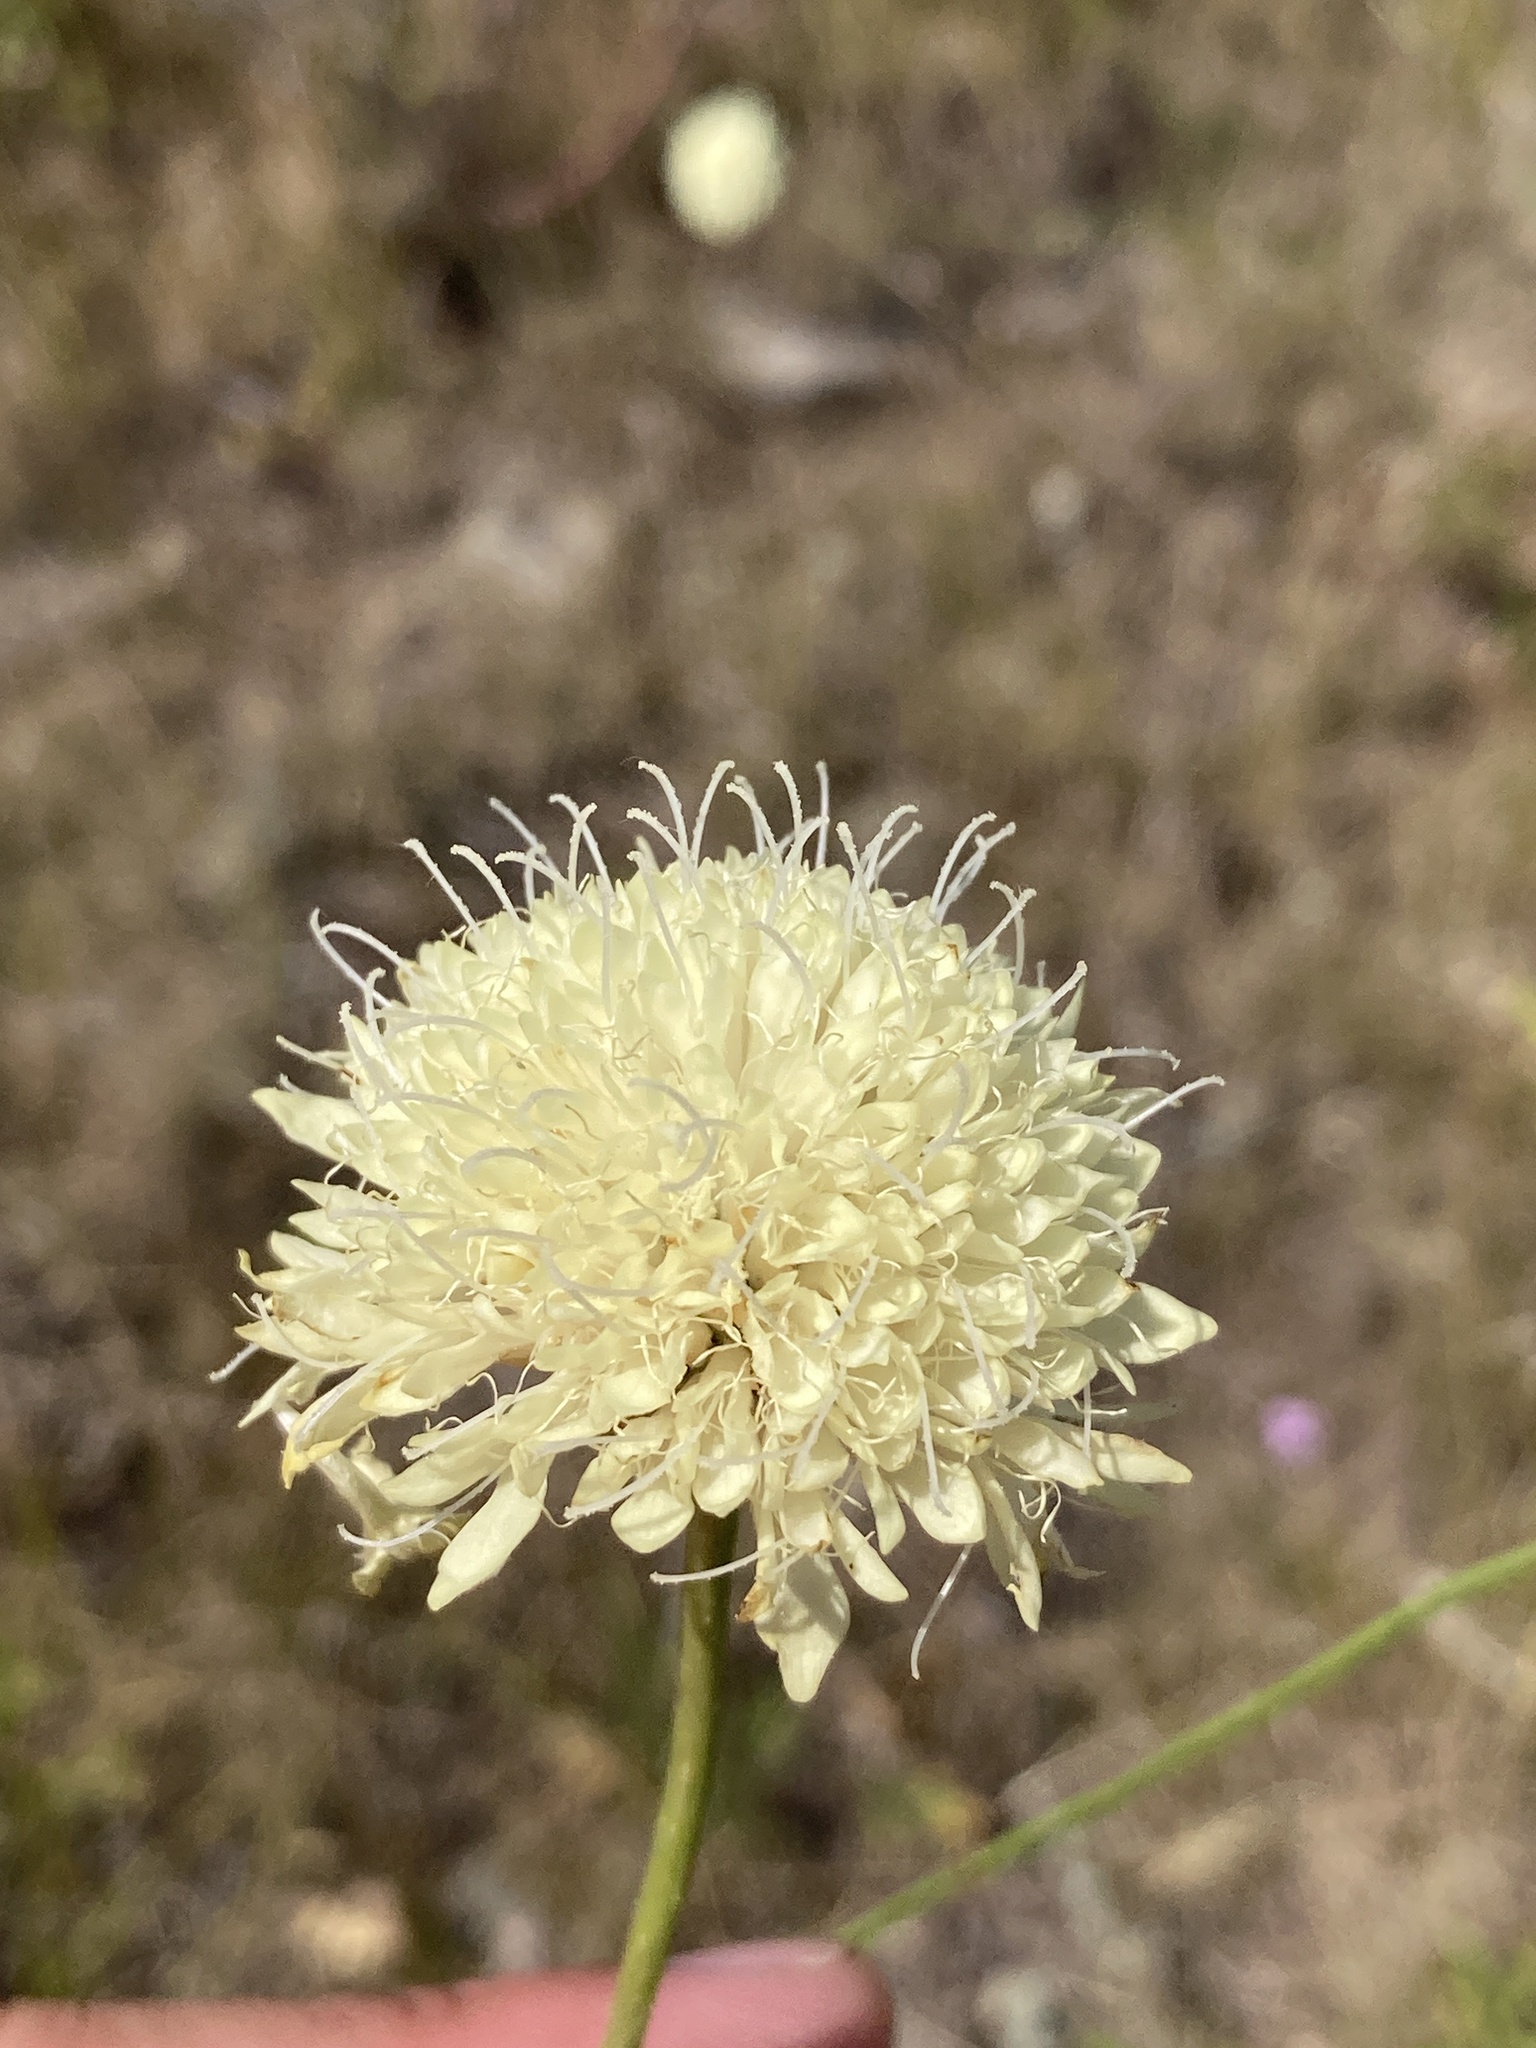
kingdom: Plantae
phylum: Tracheophyta
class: Magnoliopsida
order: Dipsacales
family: Caprifoliaceae
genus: Cephalaria
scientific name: Cephalaria uralensis
